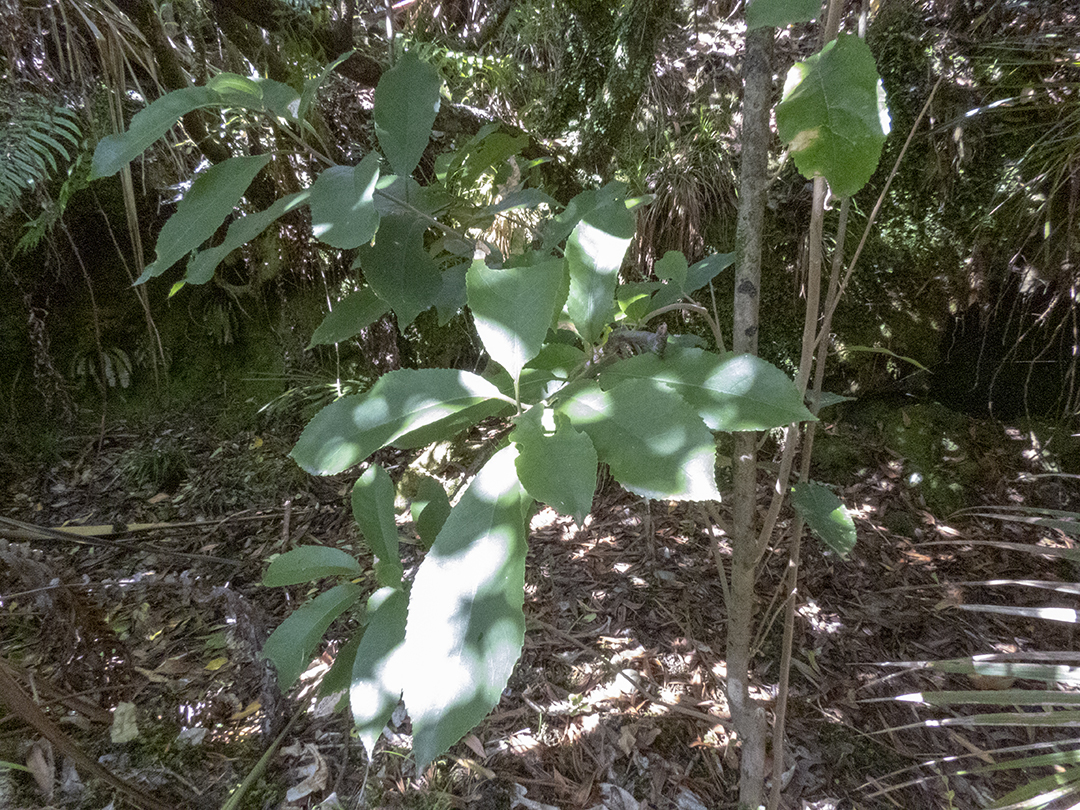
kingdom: Plantae
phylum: Tracheophyta
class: Magnoliopsida
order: Malpighiales
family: Violaceae
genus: Melicytus
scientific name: Melicytus ramiflorus
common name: Mahoe
